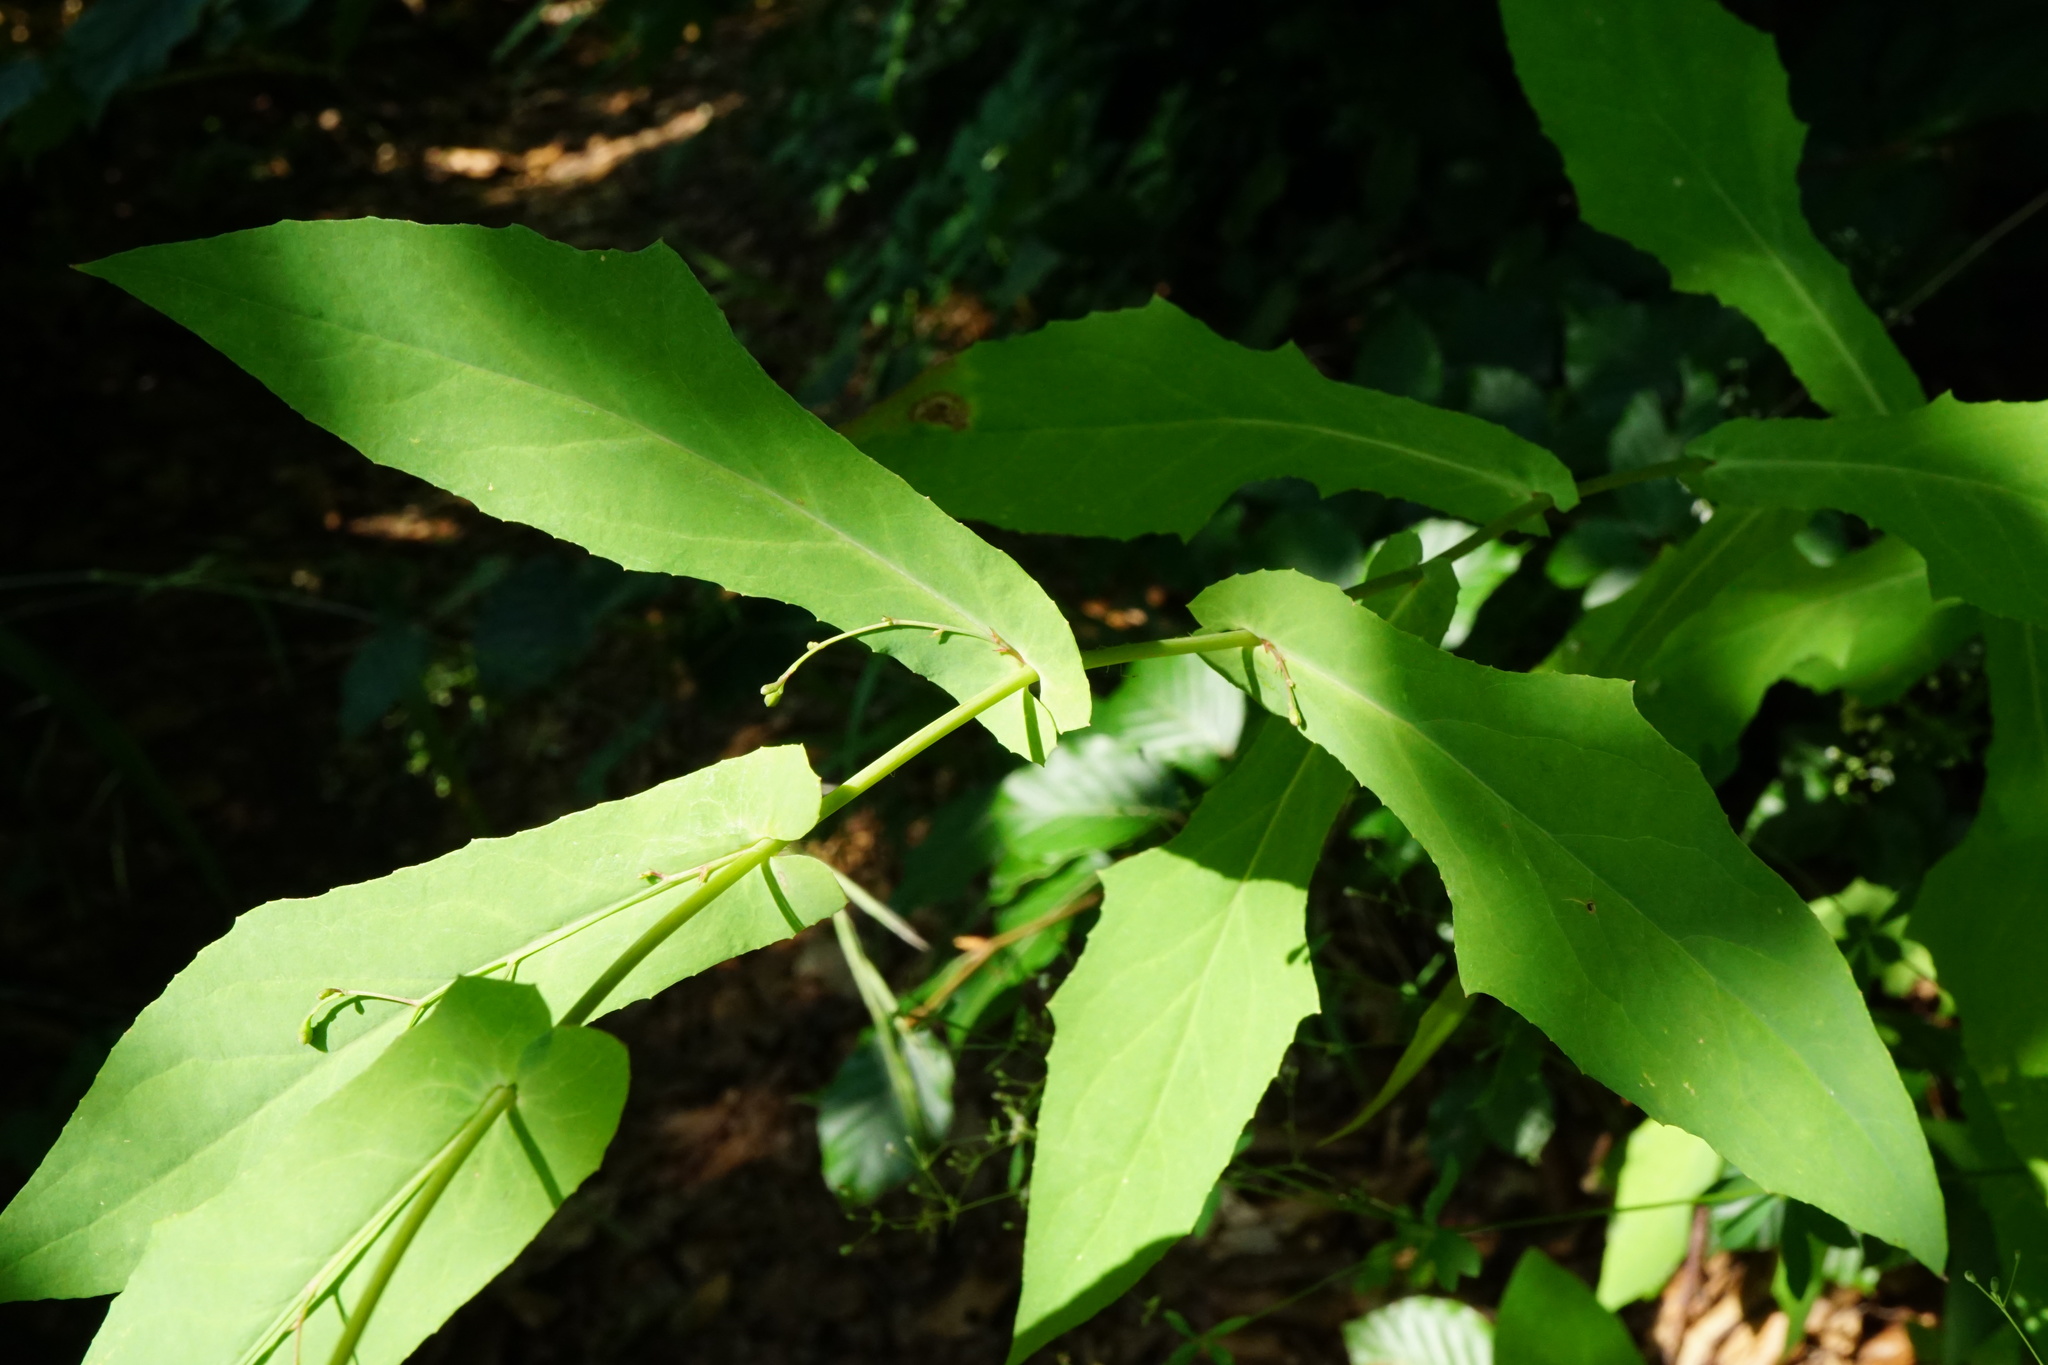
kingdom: Plantae
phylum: Tracheophyta
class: Magnoliopsida
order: Asterales
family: Asteraceae
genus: Prenanthes
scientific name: Prenanthes purpurea
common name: Purple lettuce
